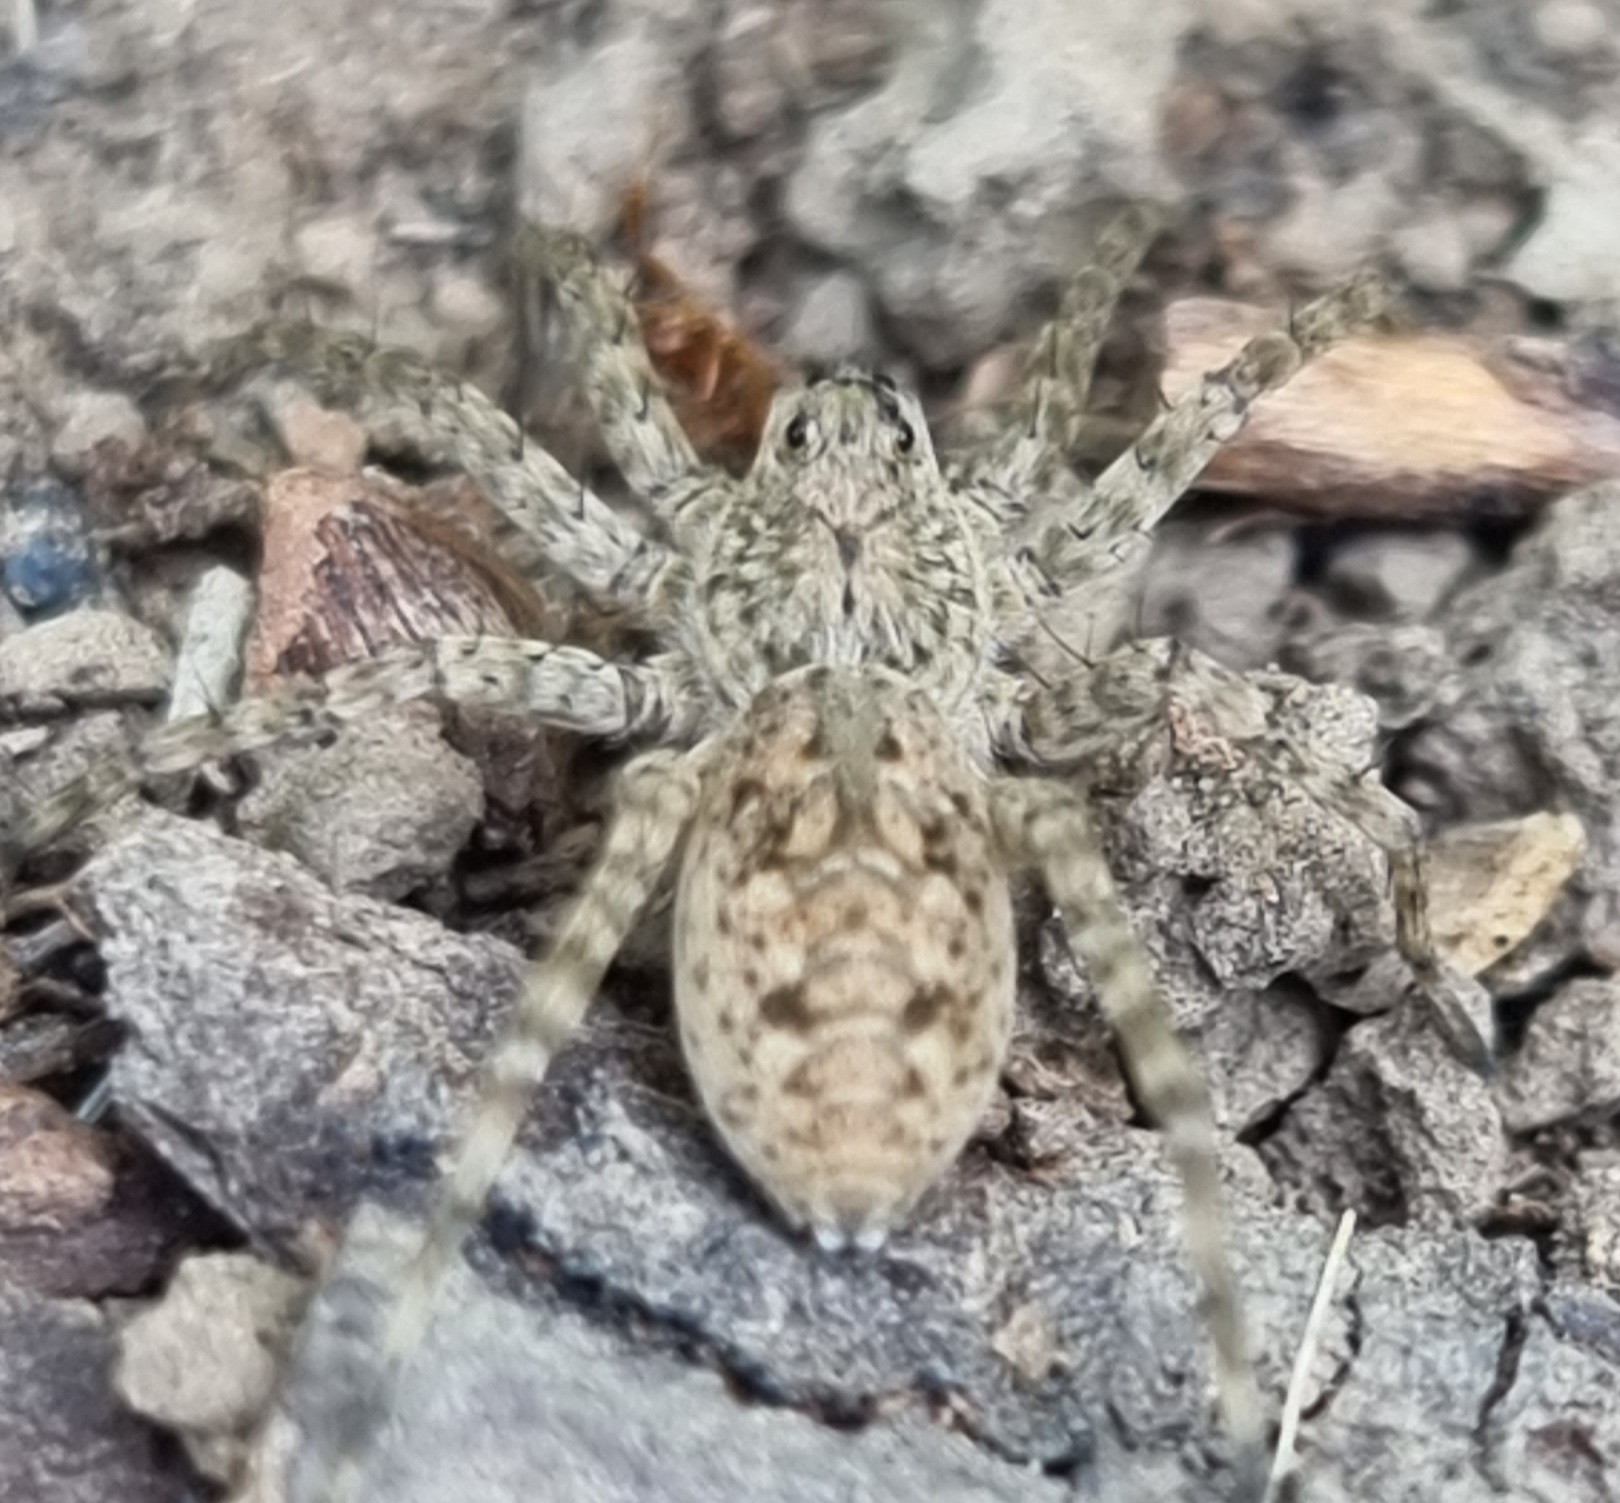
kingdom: Animalia
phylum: Arthropoda
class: Arachnida
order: Araneae
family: Lycosidae
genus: Lycosa
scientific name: Lycosa singoriensis
